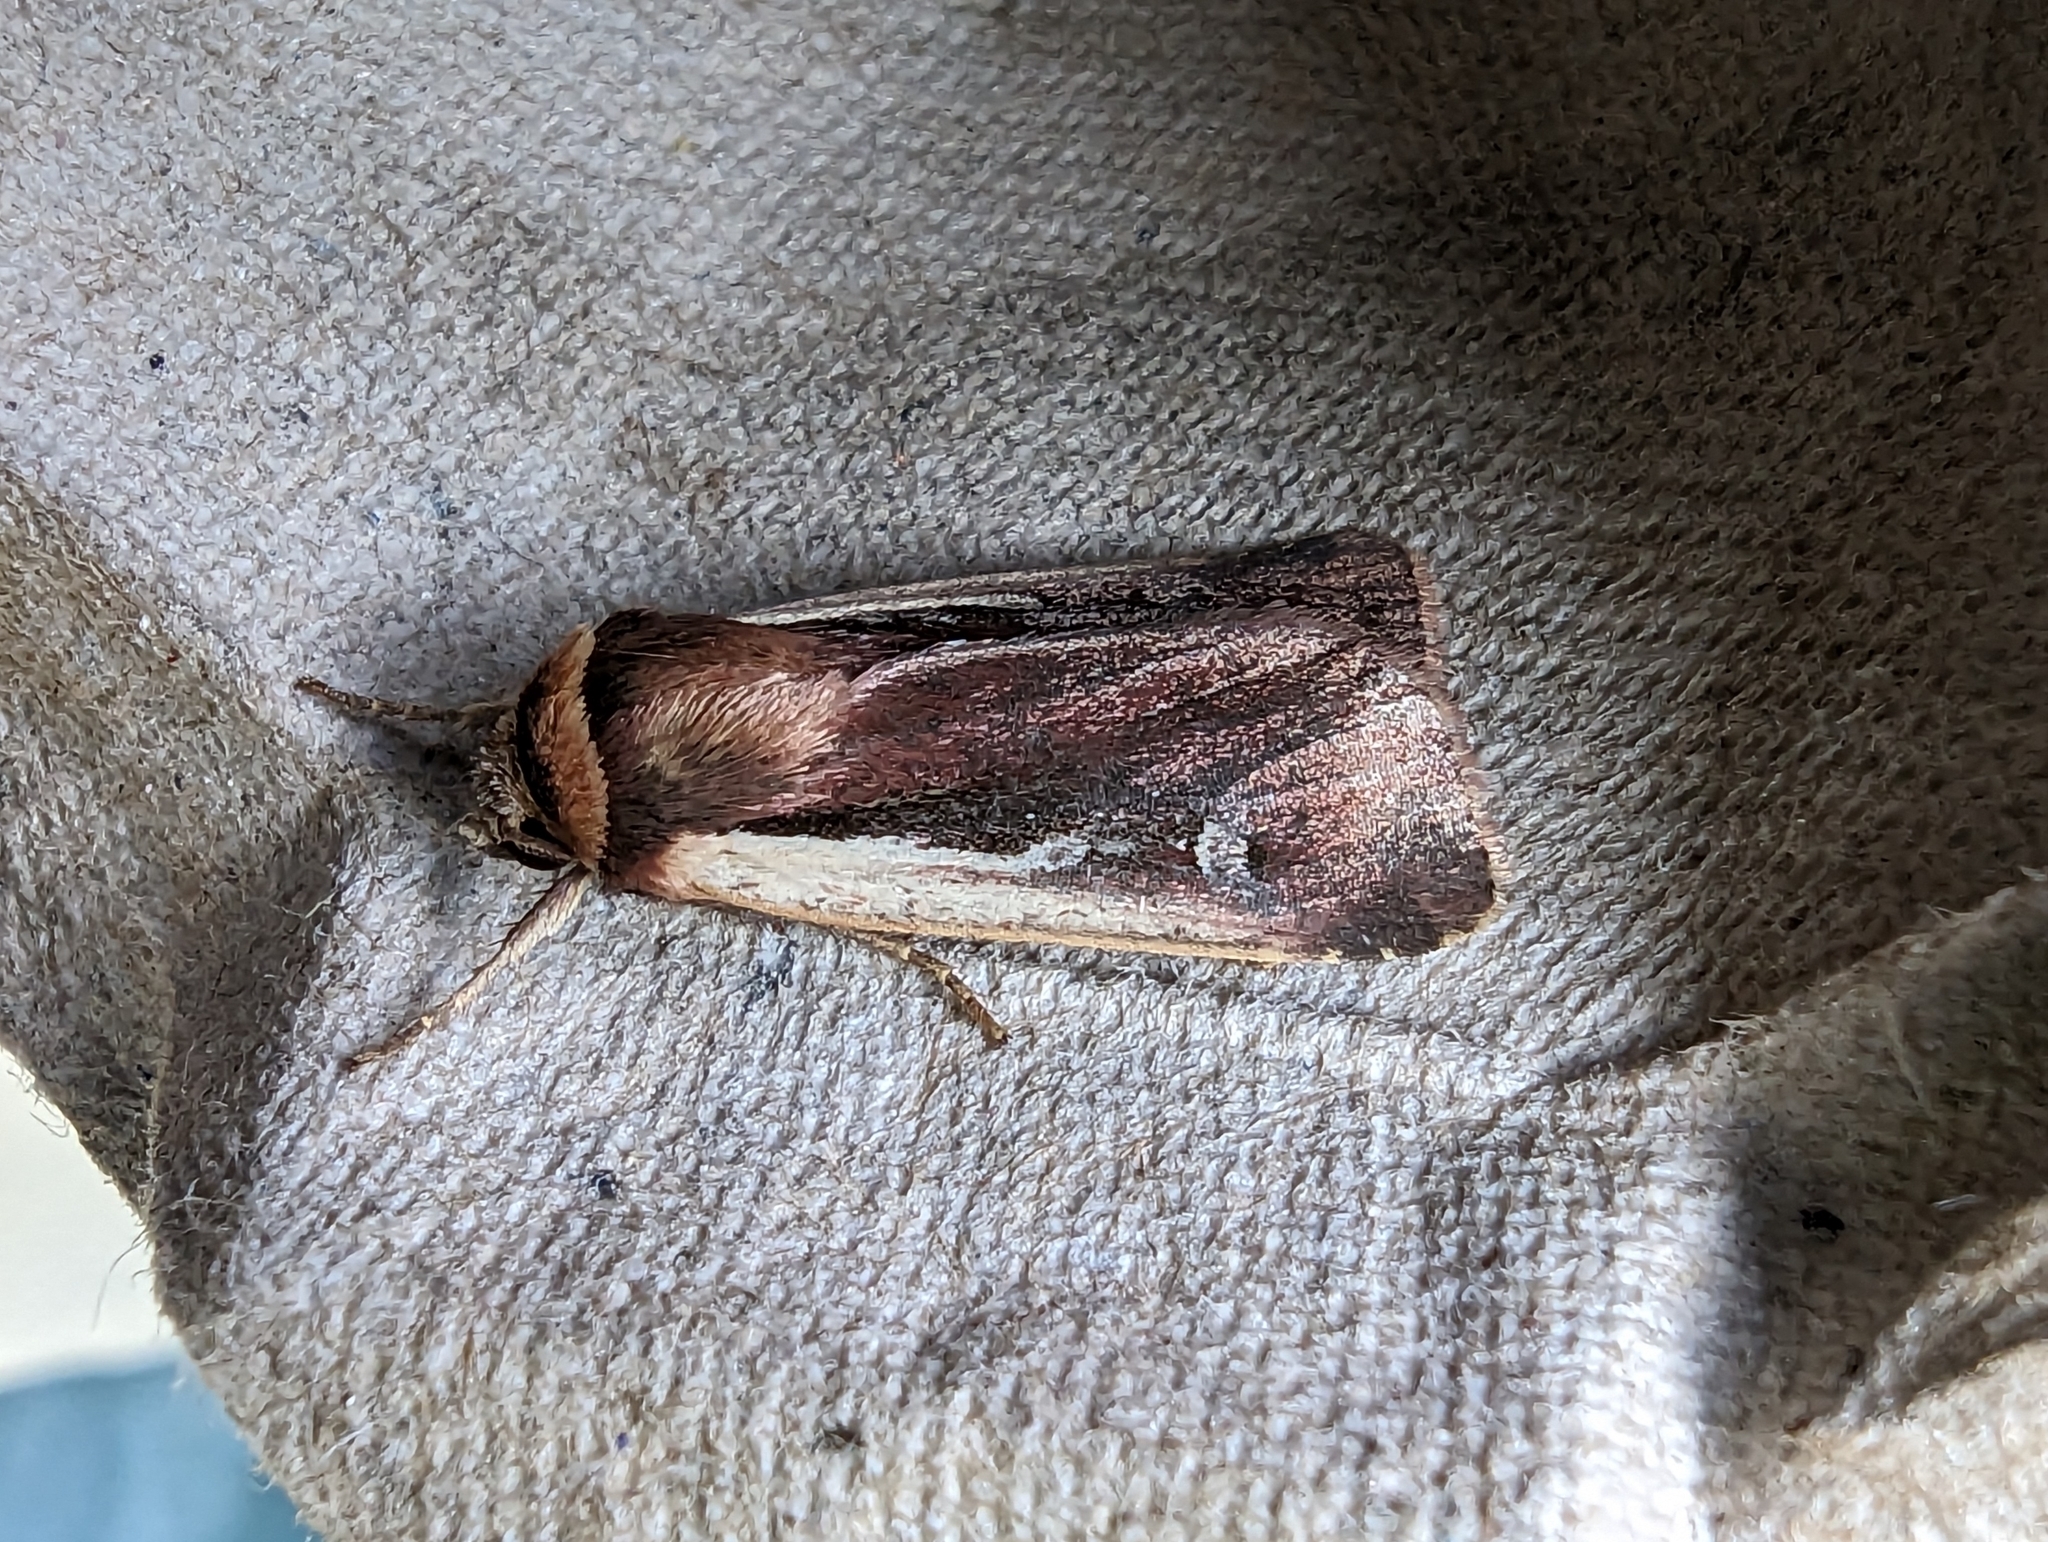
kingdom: Animalia
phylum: Arthropoda
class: Insecta
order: Lepidoptera
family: Noctuidae
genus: Ochropleura
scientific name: Ochropleura plecta
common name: Flame shoulder
